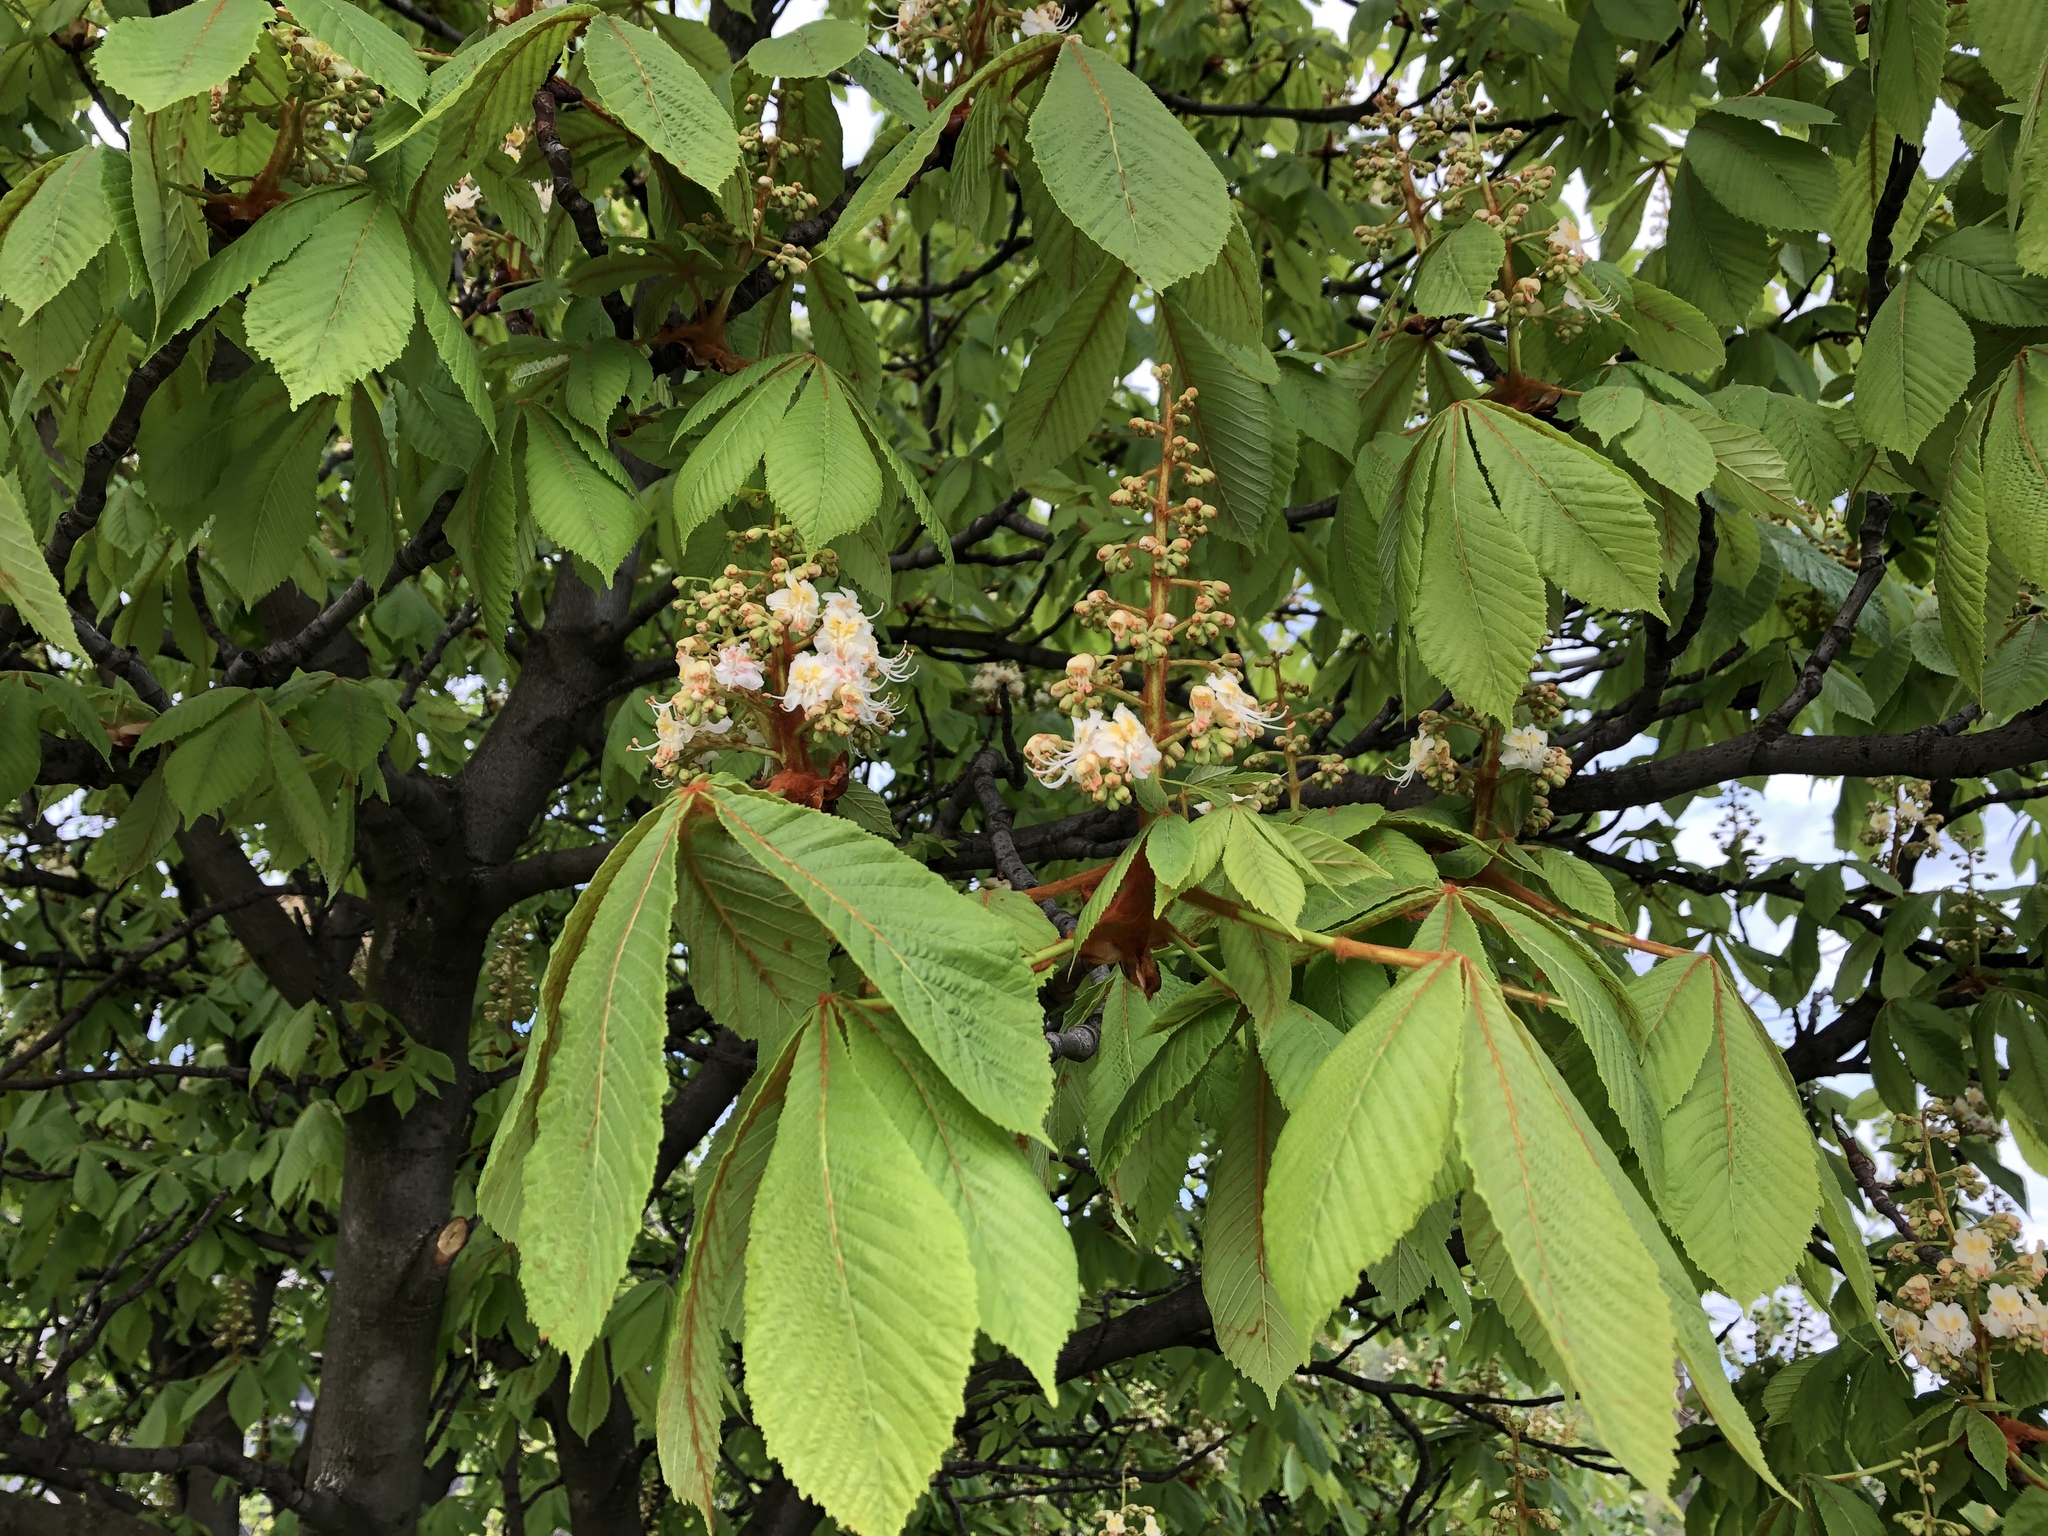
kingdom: Plantae
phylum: Tracheophyta
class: Magnoliopsida
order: Sapindales
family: Sapindaceae
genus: Aesculus
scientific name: Aesculus hippocastanum
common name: Horse-chestnut
